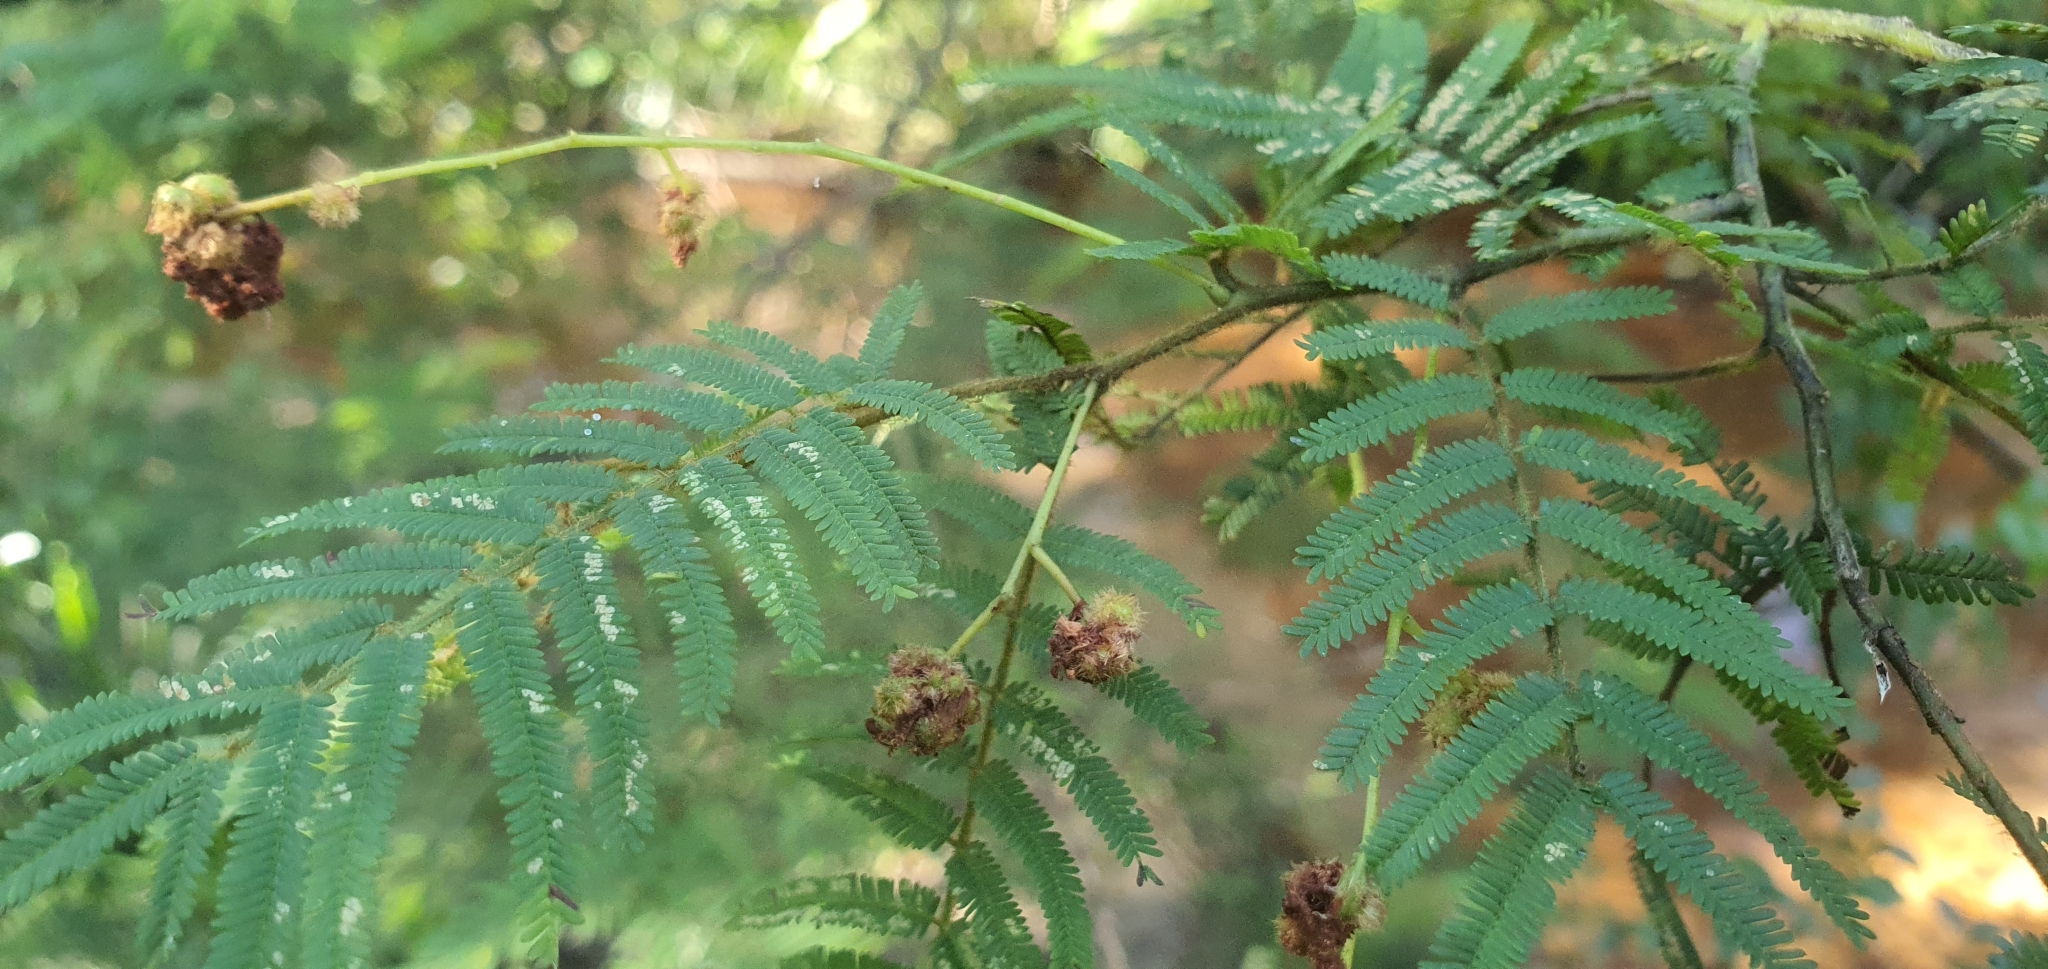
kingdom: Plantae
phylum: Tracheophyta
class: Magnoliopsida
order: Fabales
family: Fabaceae
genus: Acacia
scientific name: Acacia oshanesii
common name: Corkwood wattle
